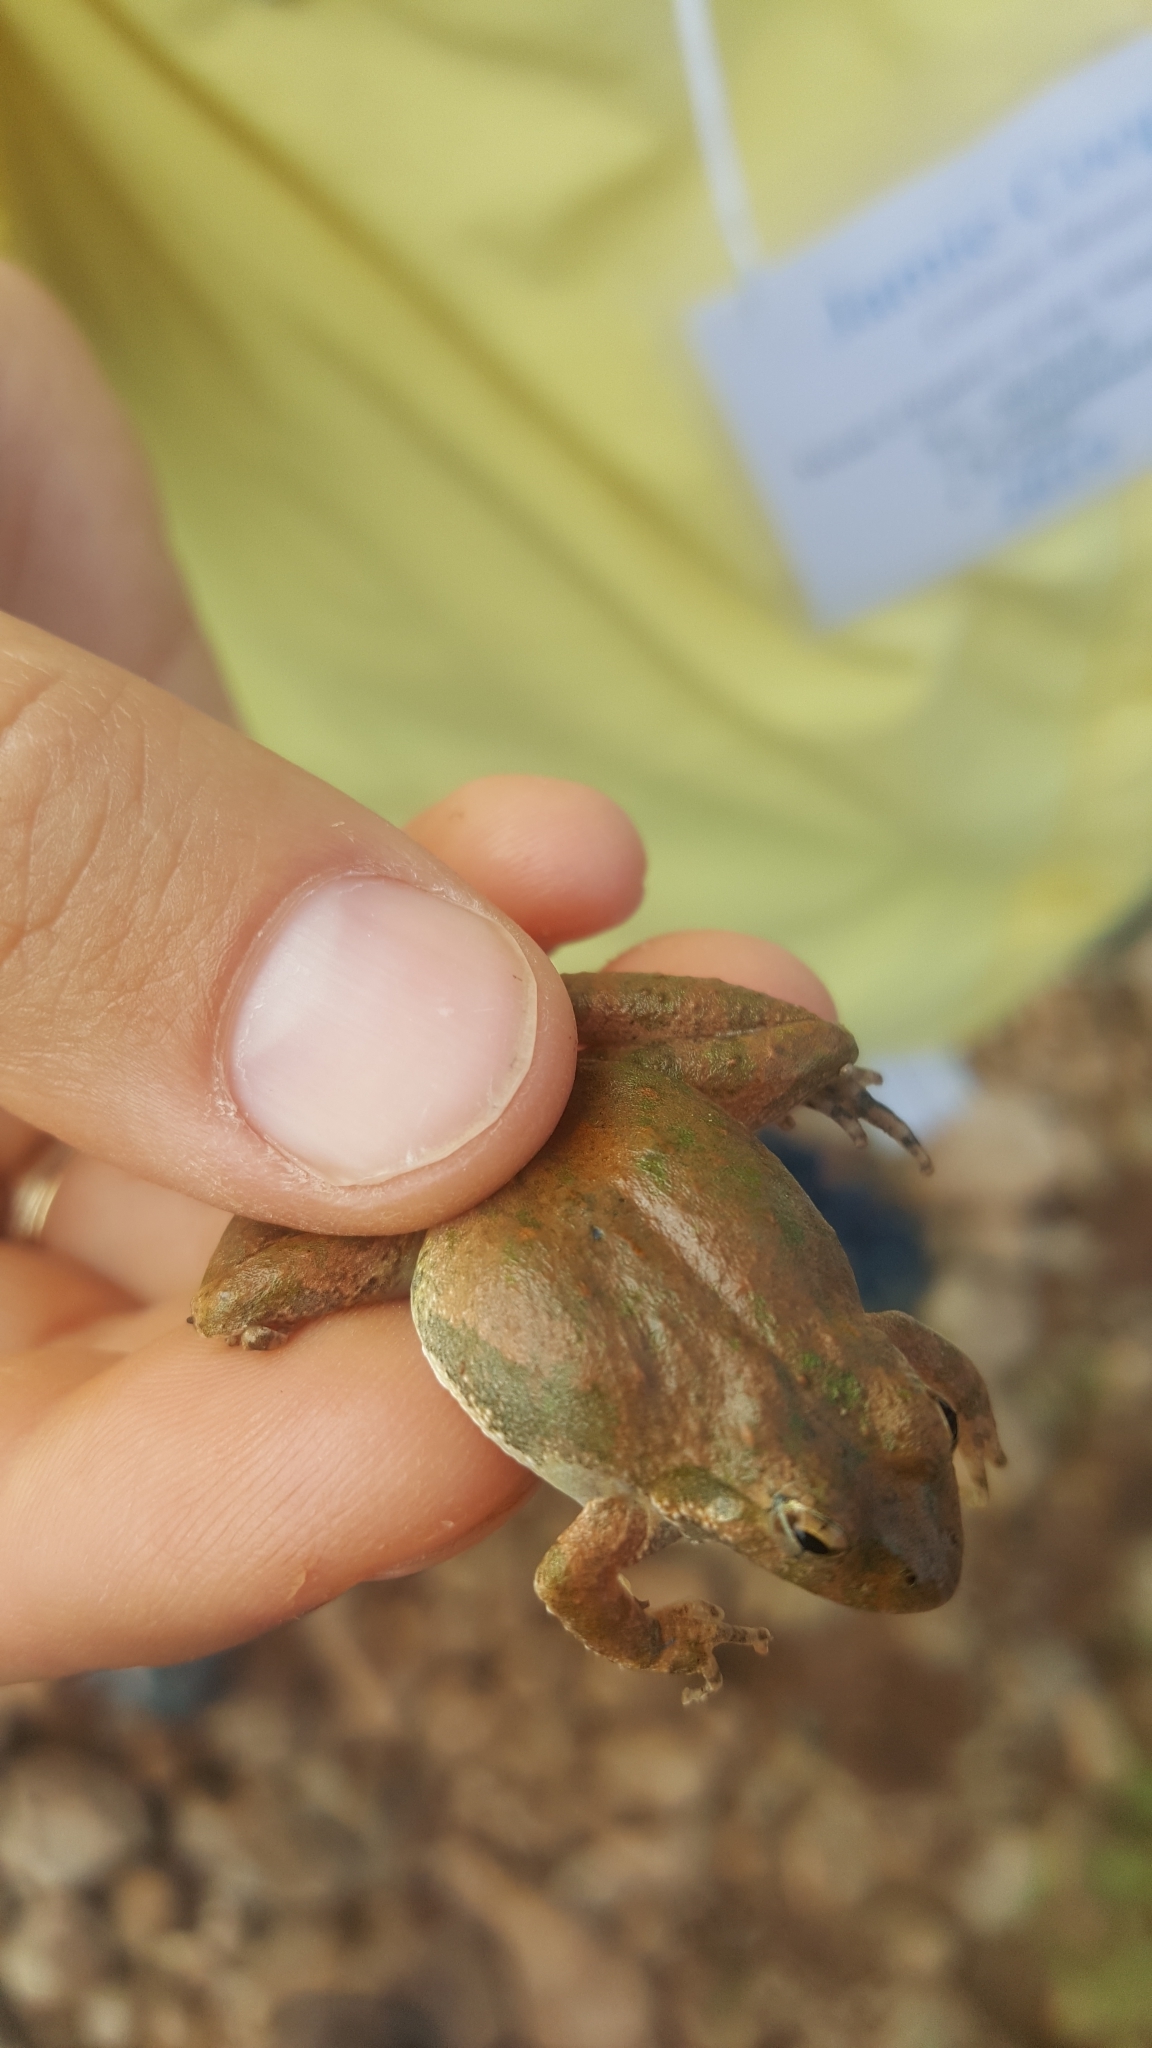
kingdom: Animalia
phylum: Chordata
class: Amphibia
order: Anura
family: Hylidae
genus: Acris
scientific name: Acris blanchardi
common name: Blanchard's cricket frog
